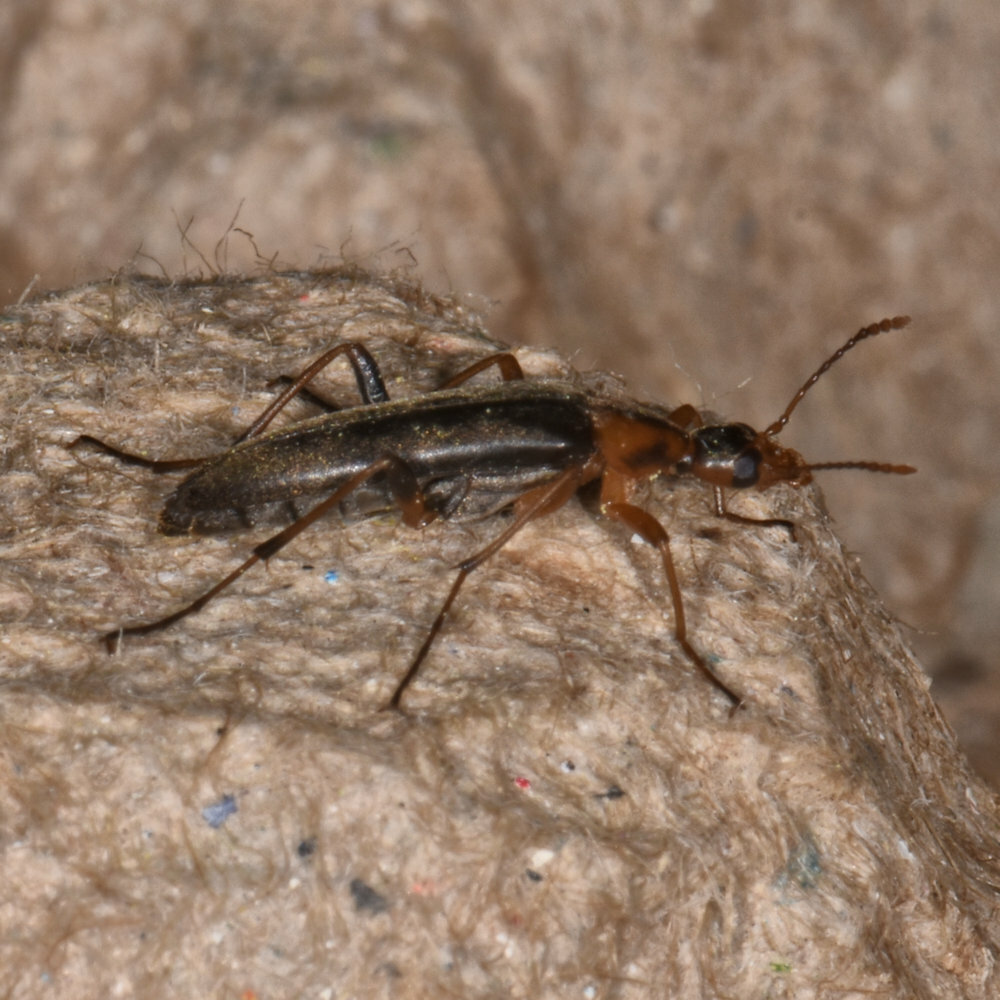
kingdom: Animalia
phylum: Arthropoda
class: Insecta
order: Coleoptera
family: Stenotrachelidae
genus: Cephaloon
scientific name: Cephaloon lepturides
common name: False leptura beetle
